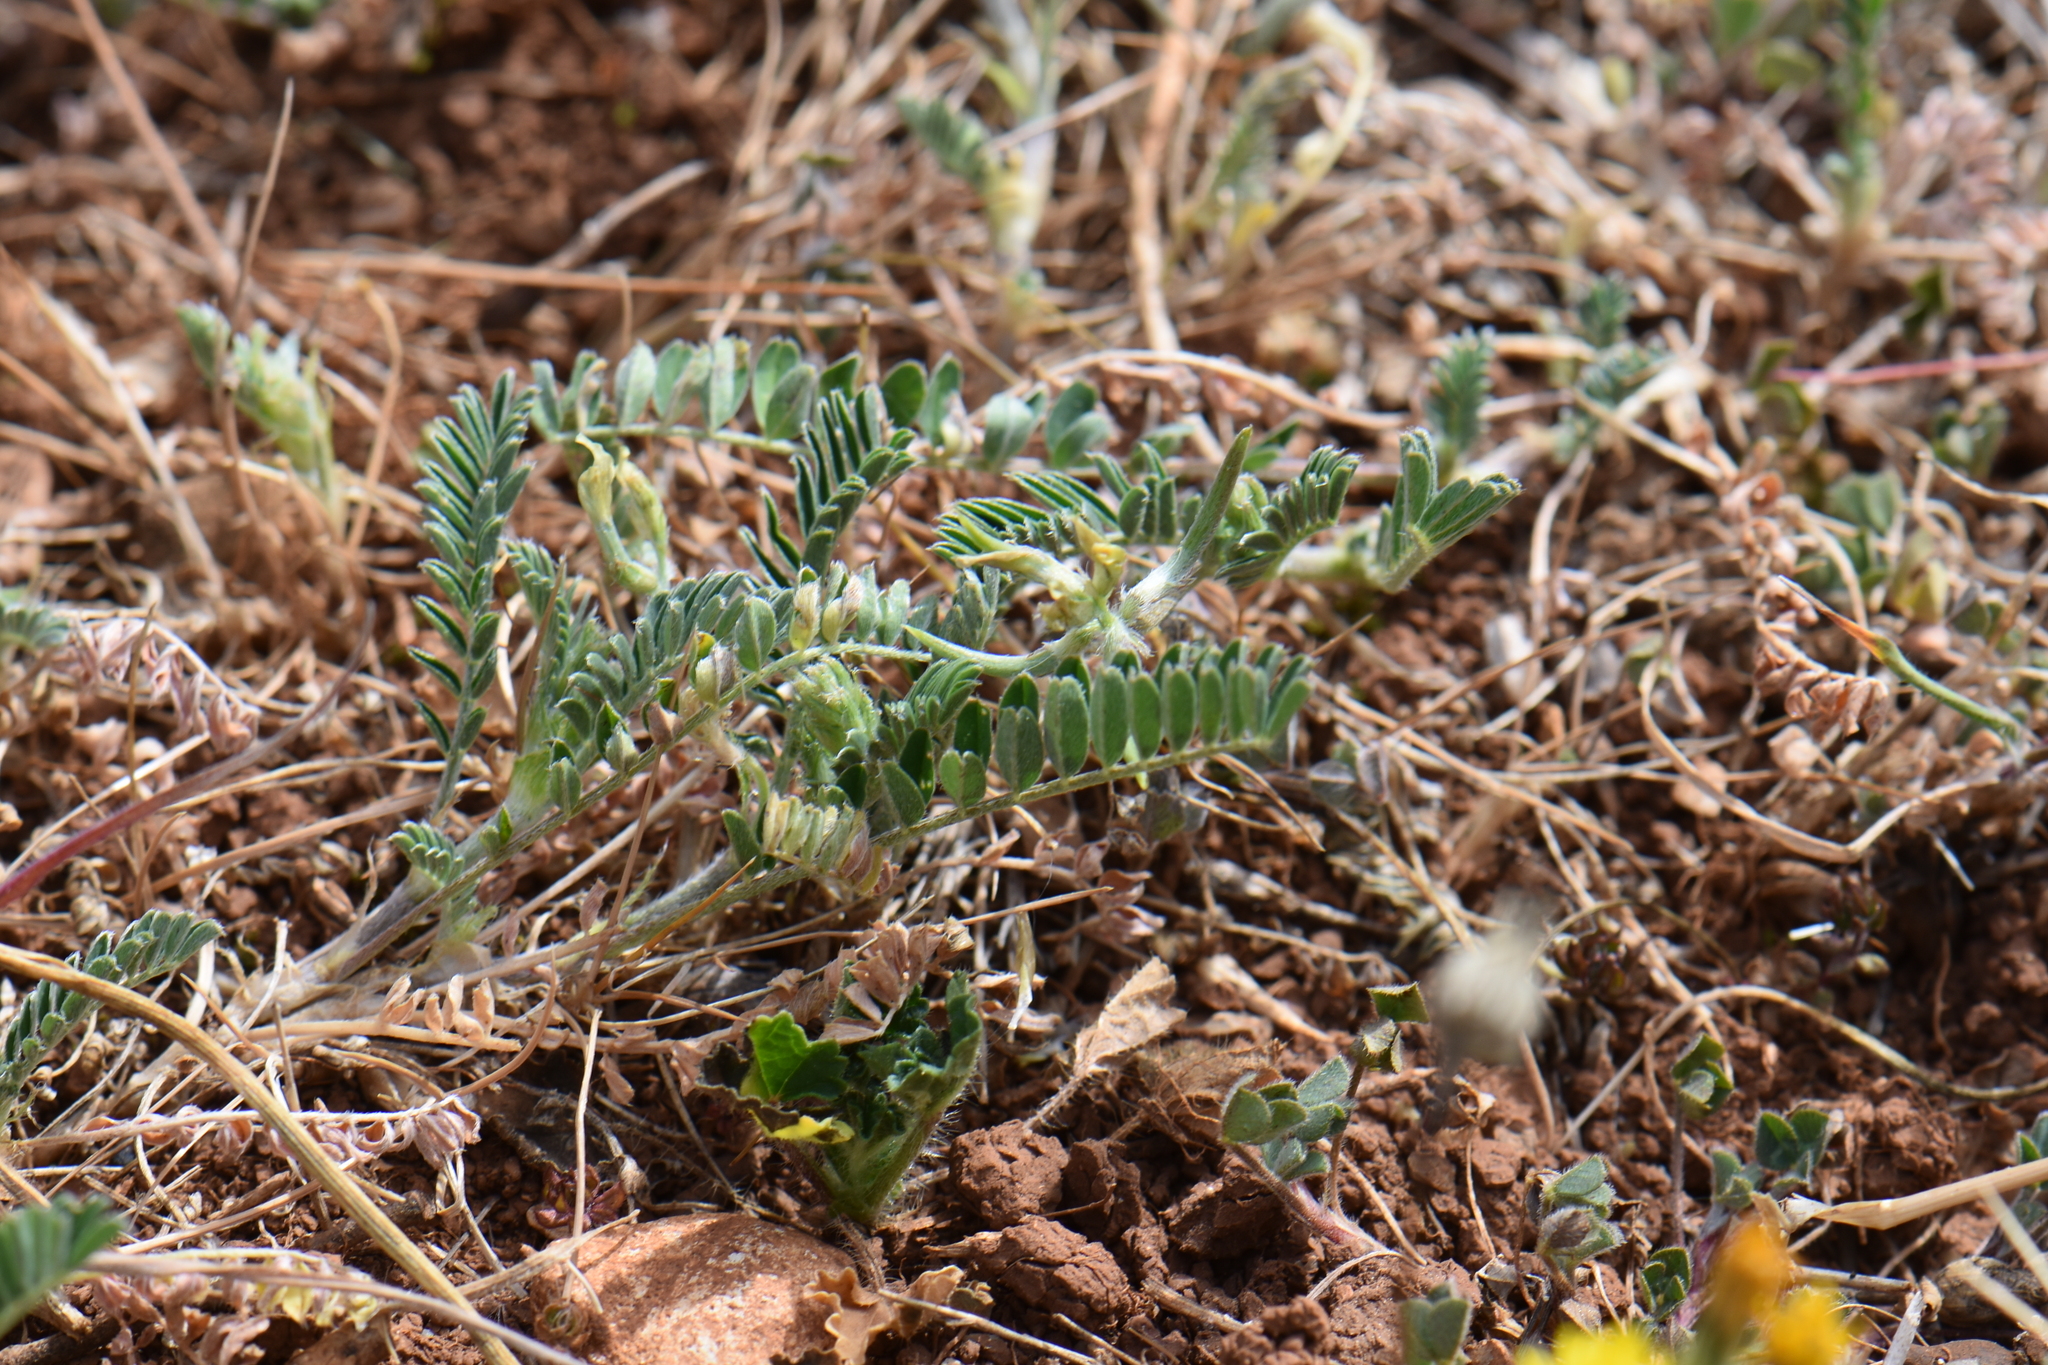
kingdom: Plantae
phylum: Tracheophyta
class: Magnoliopsida
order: Fabales
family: Fabaceae
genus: Astragalus
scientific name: Astragalus hamosus
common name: European milkvetch
